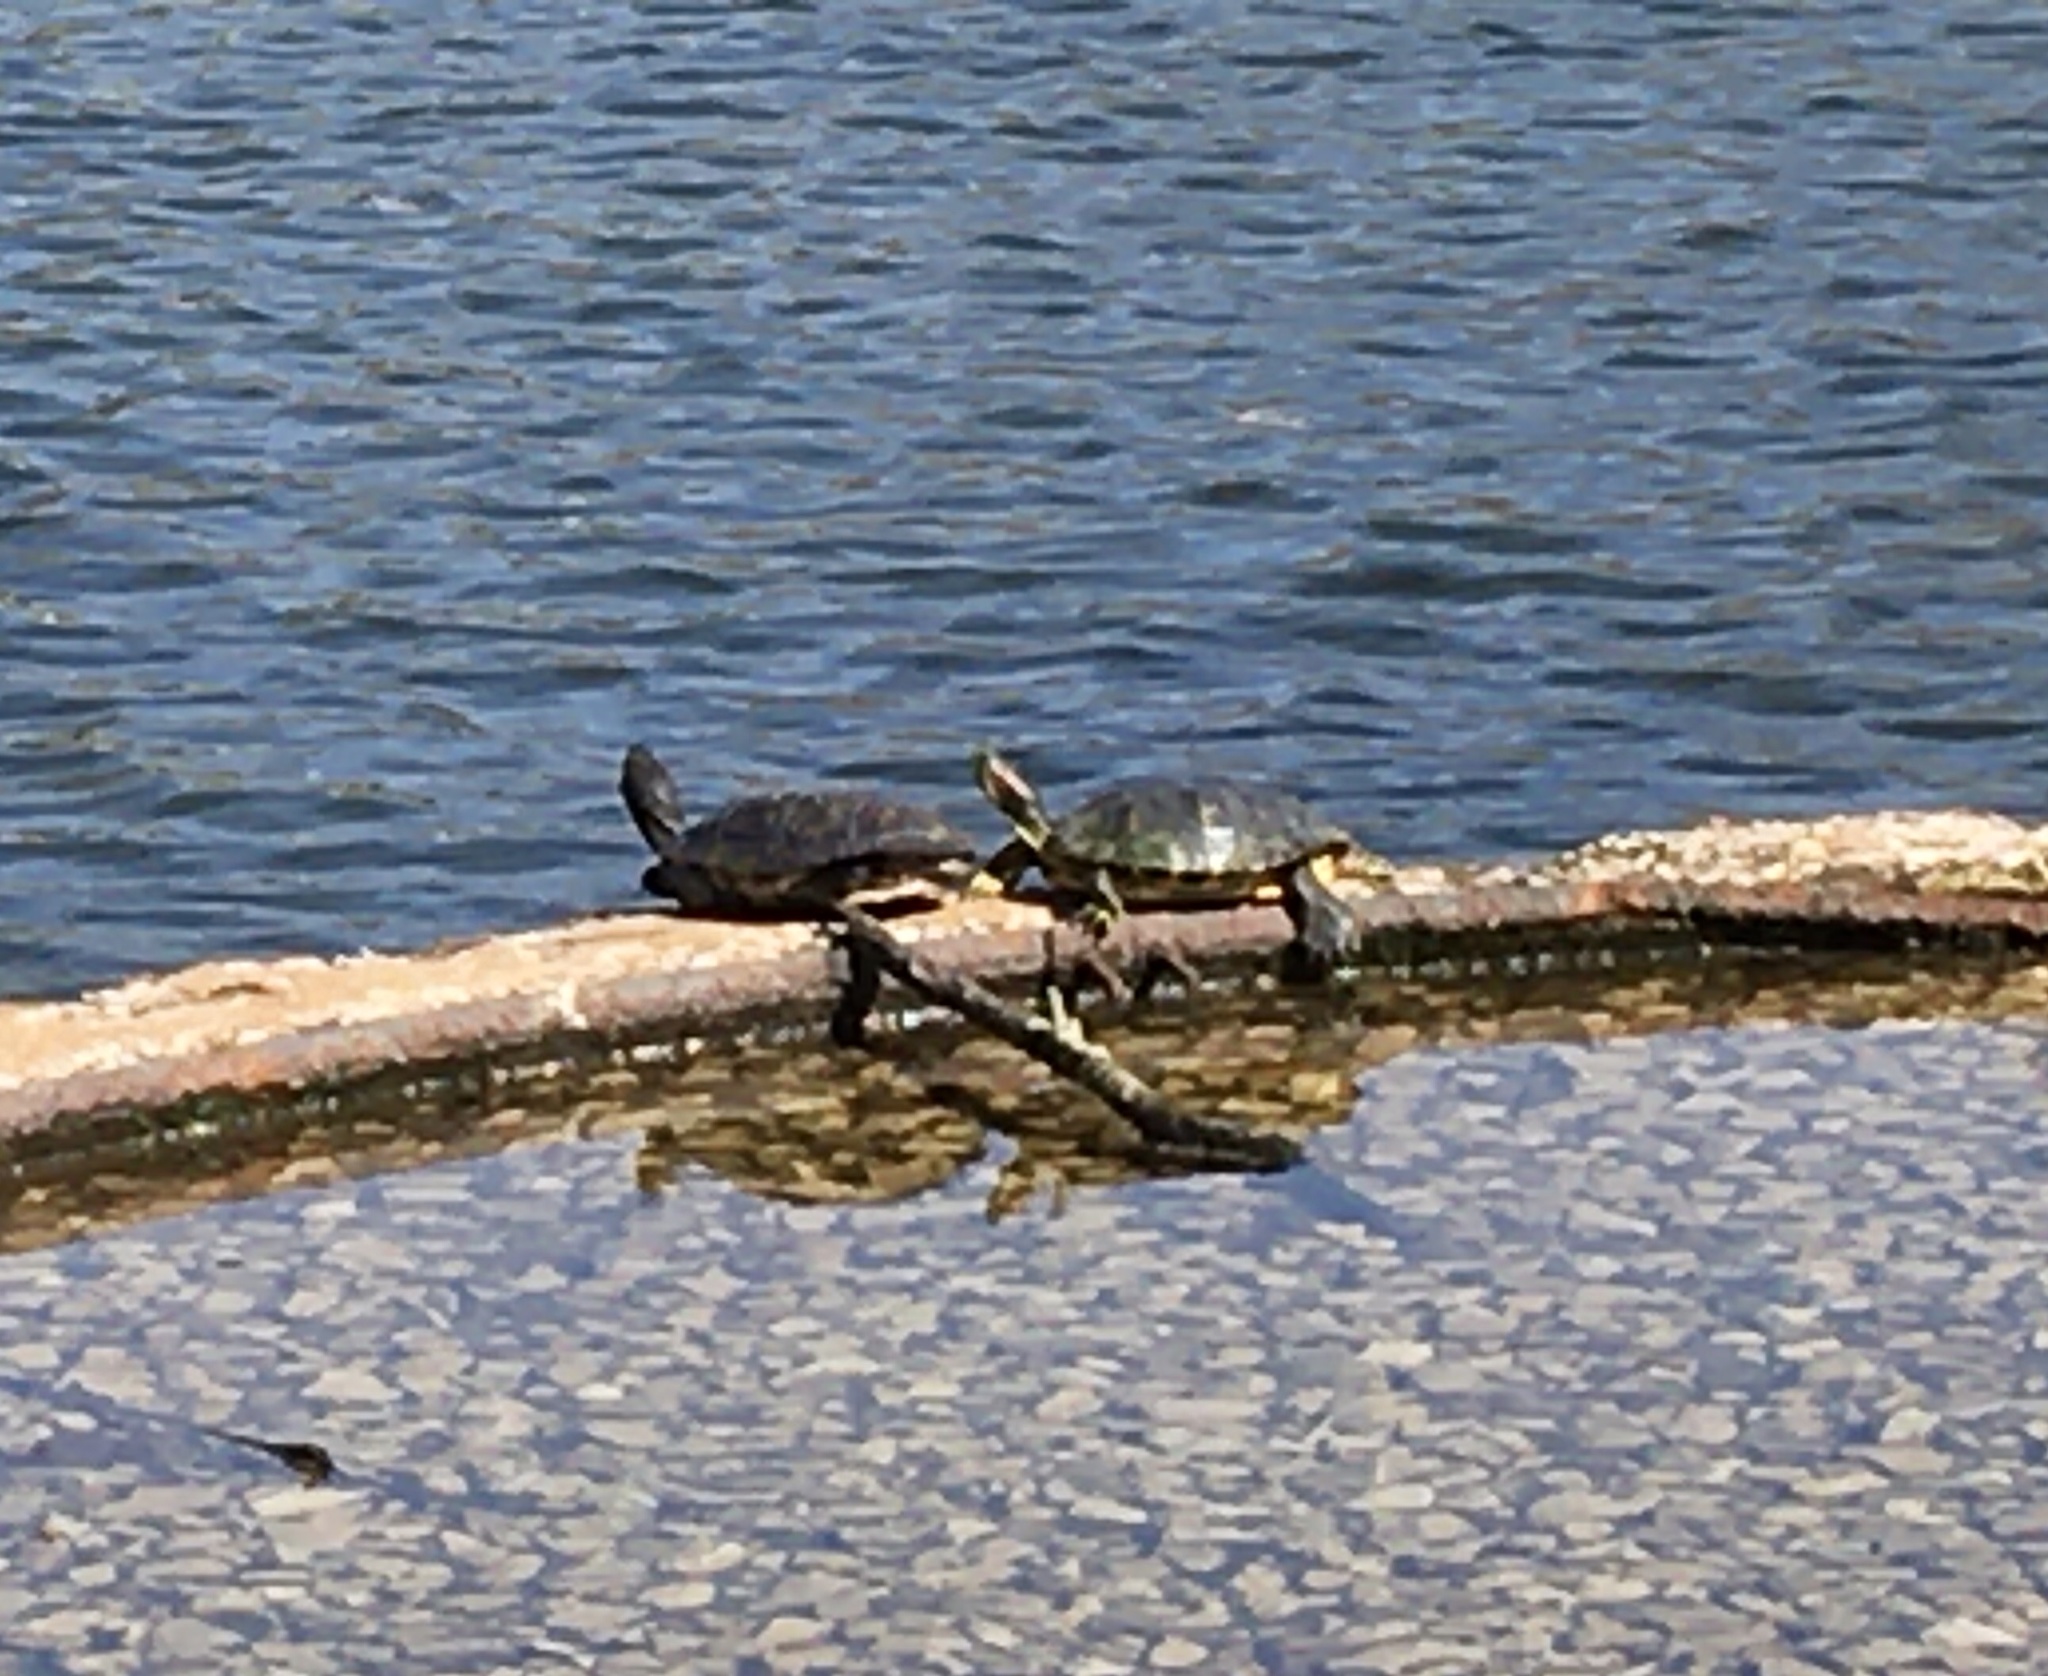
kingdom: Animalia
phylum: Chordata
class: Testudines
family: Emydidae
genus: Trachemys
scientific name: Trachemys scripta
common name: Slider
